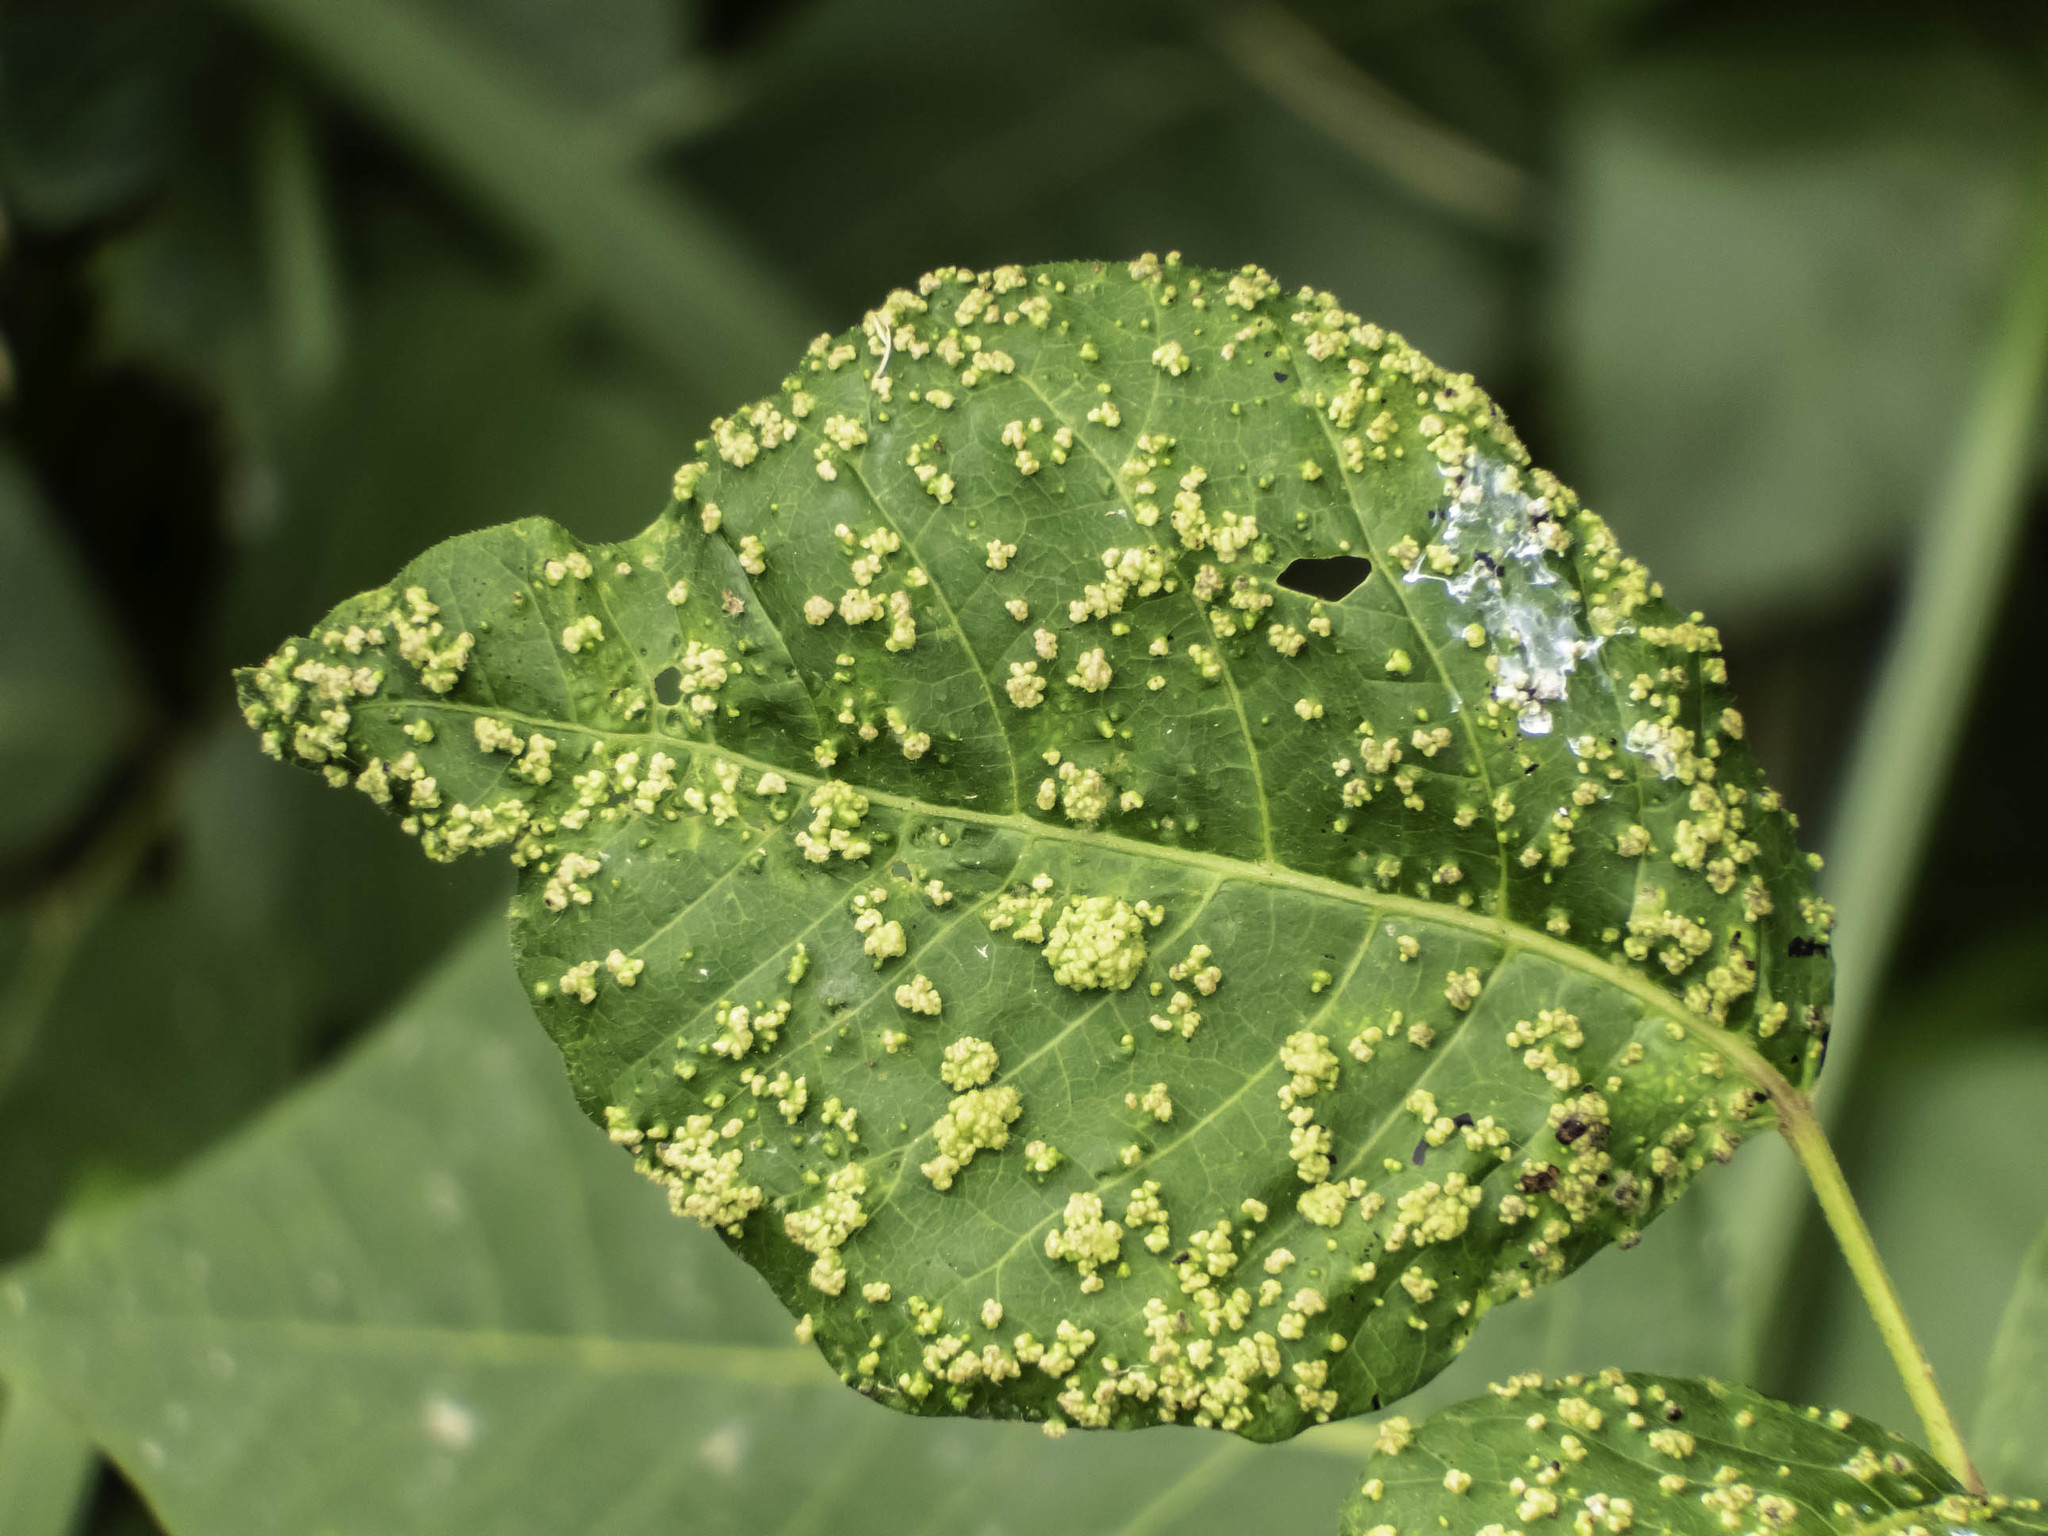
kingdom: Animalia
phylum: Arthropoda
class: Arachnida
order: Trombidiformes
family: Eriophyidae
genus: Aculops
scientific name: Aculops
